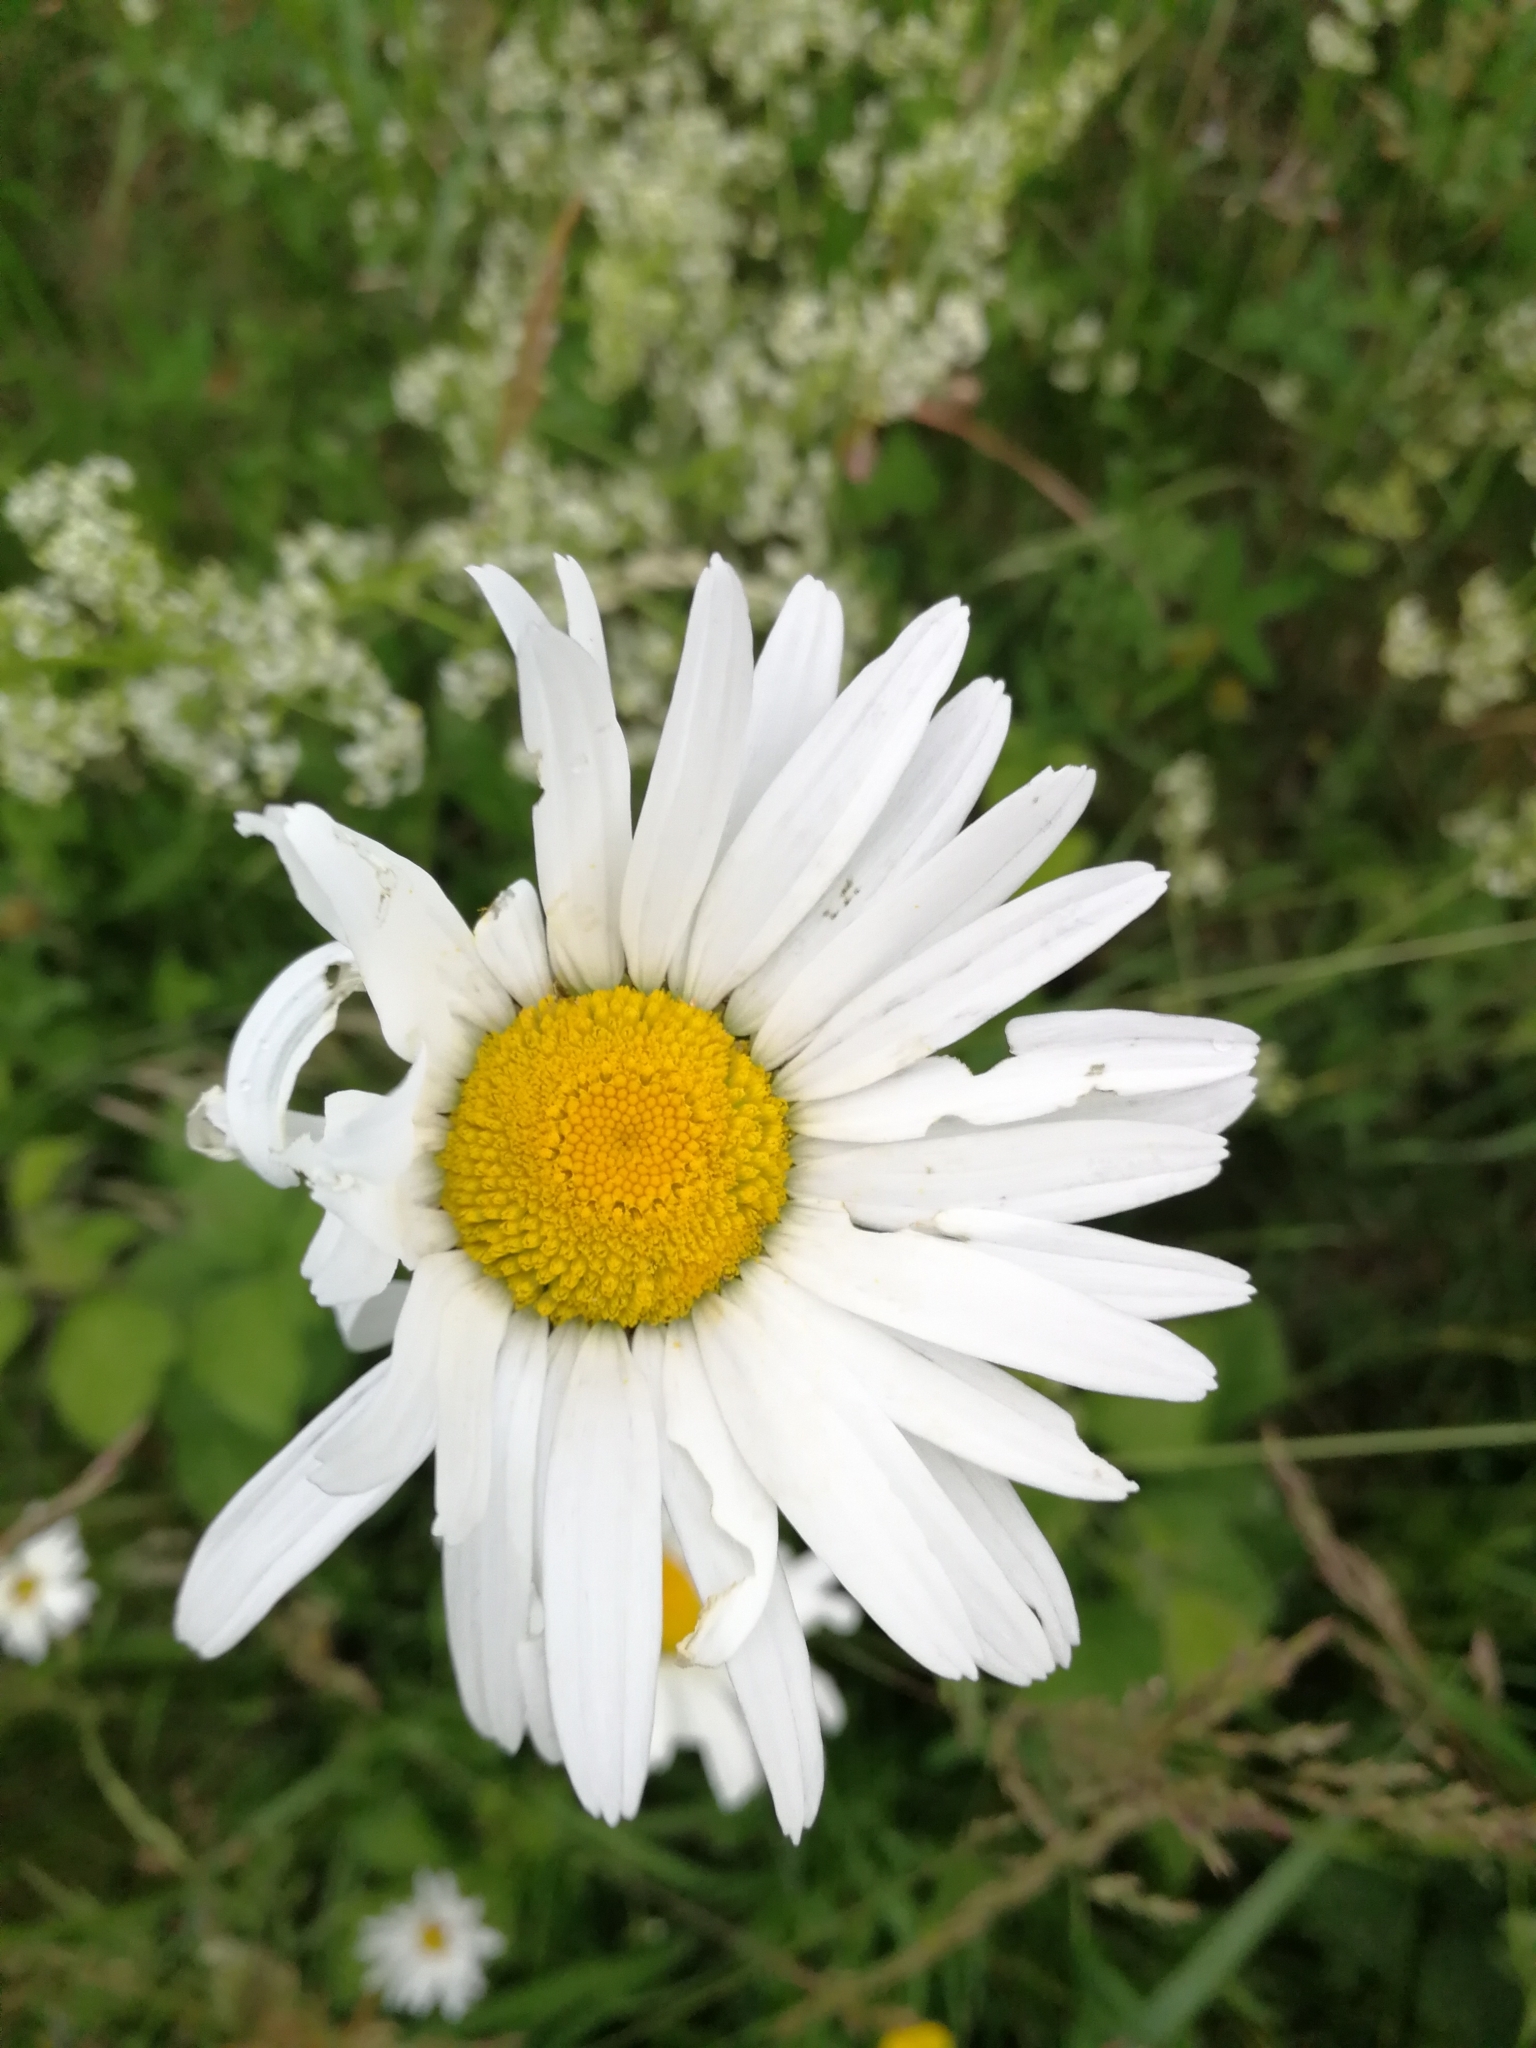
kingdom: Plantae
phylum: Tracheophyta
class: Magnoliopsida
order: Asterales
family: Asteraceae
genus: Leucanthemum
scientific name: Leucanthemum vulgare
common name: Oxeye daisy
